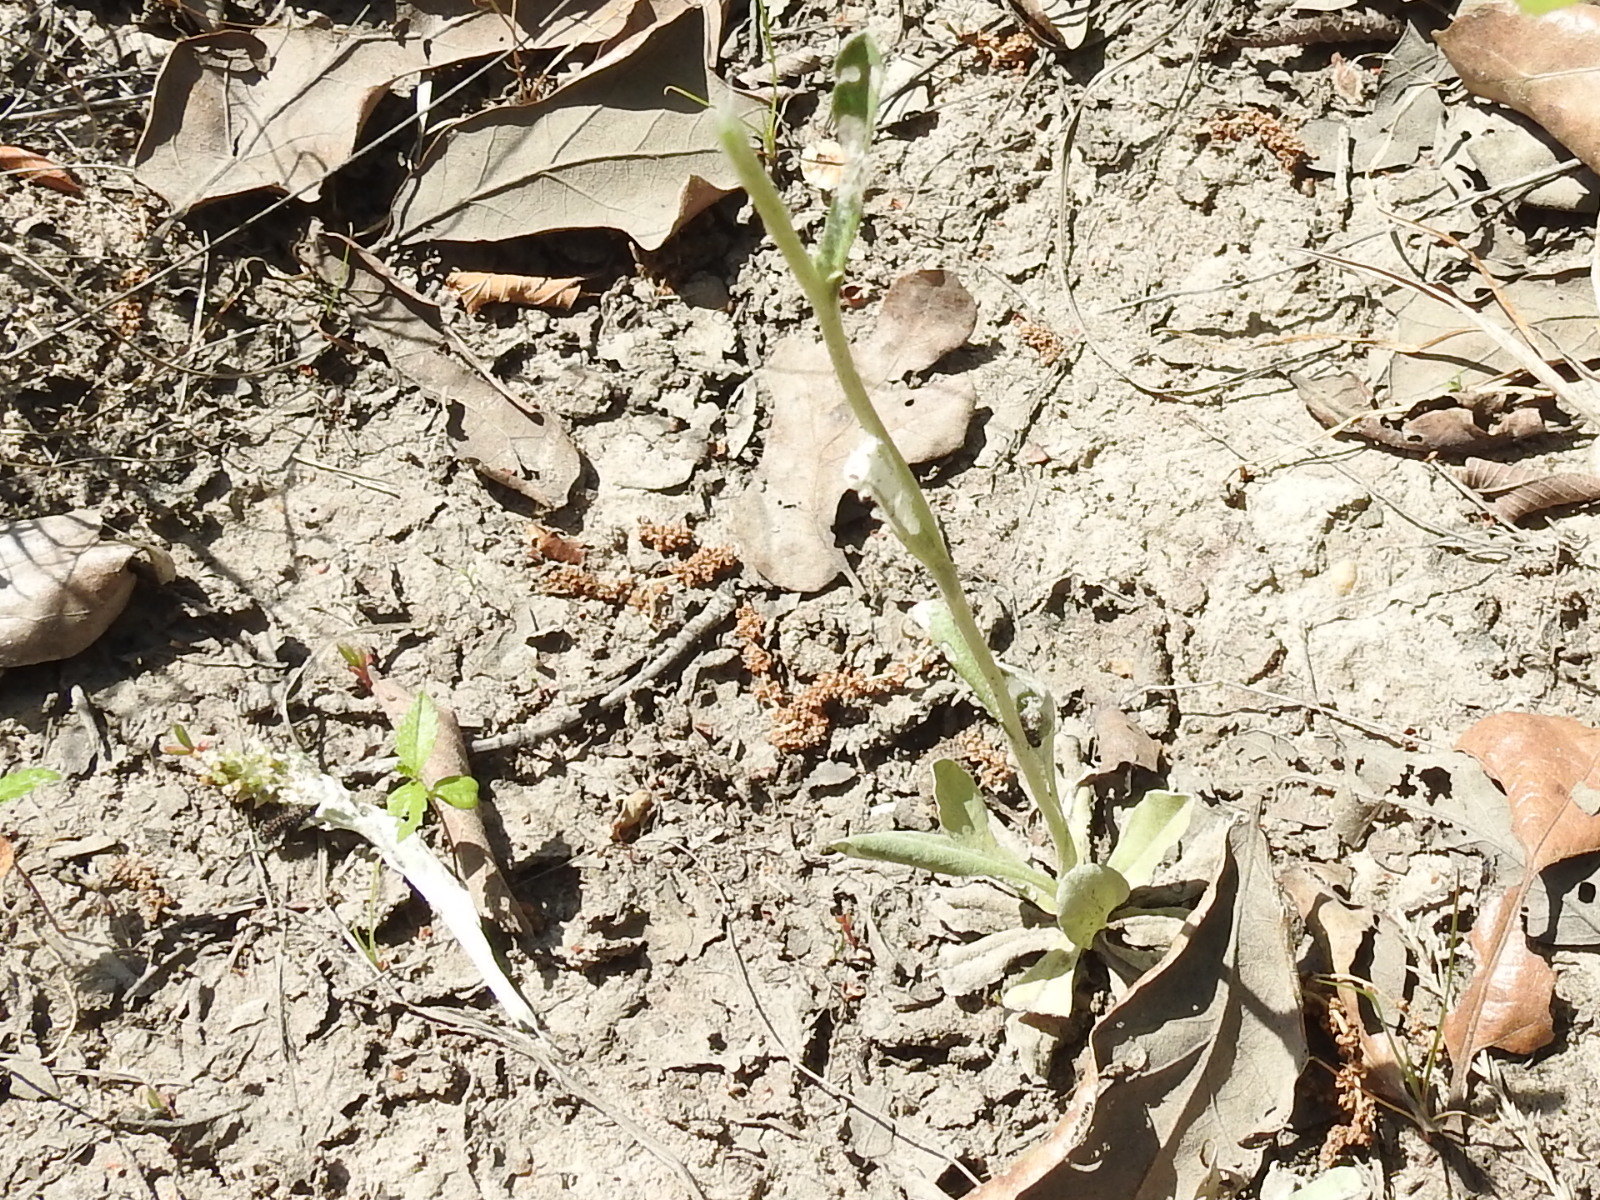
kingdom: Plantae
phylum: Tracheophyta
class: Magnoliopsida
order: Asterales
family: Asteraceae
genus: Gamochaeta
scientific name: Gamochaeta pensylvanica
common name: Pennsylvania everlasting
